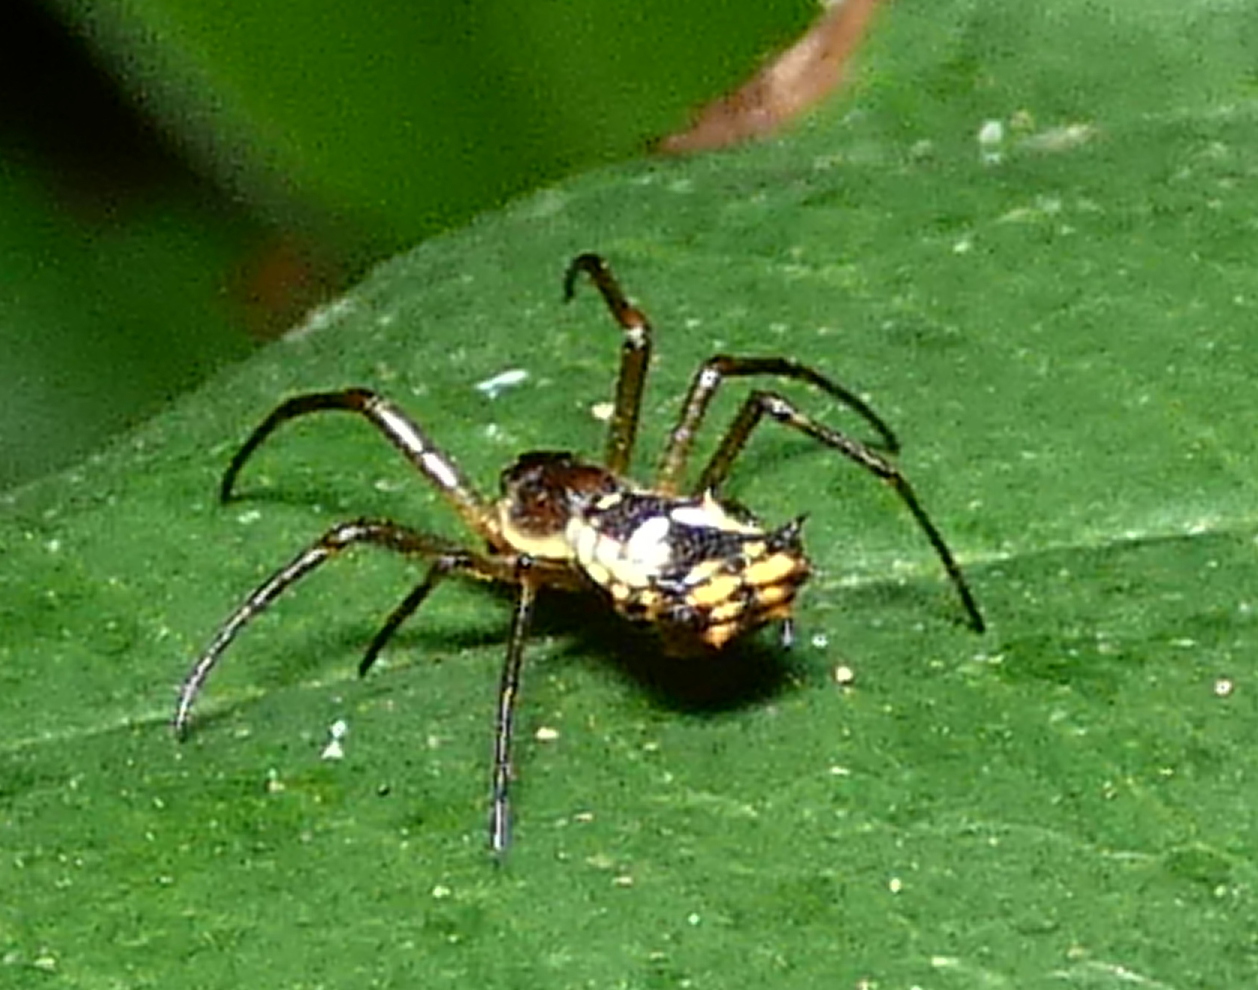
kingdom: Animalia
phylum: Arthropoda
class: Arachnida
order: Araneae
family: Araneidae
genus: Micrathena
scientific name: Micrathena picta
